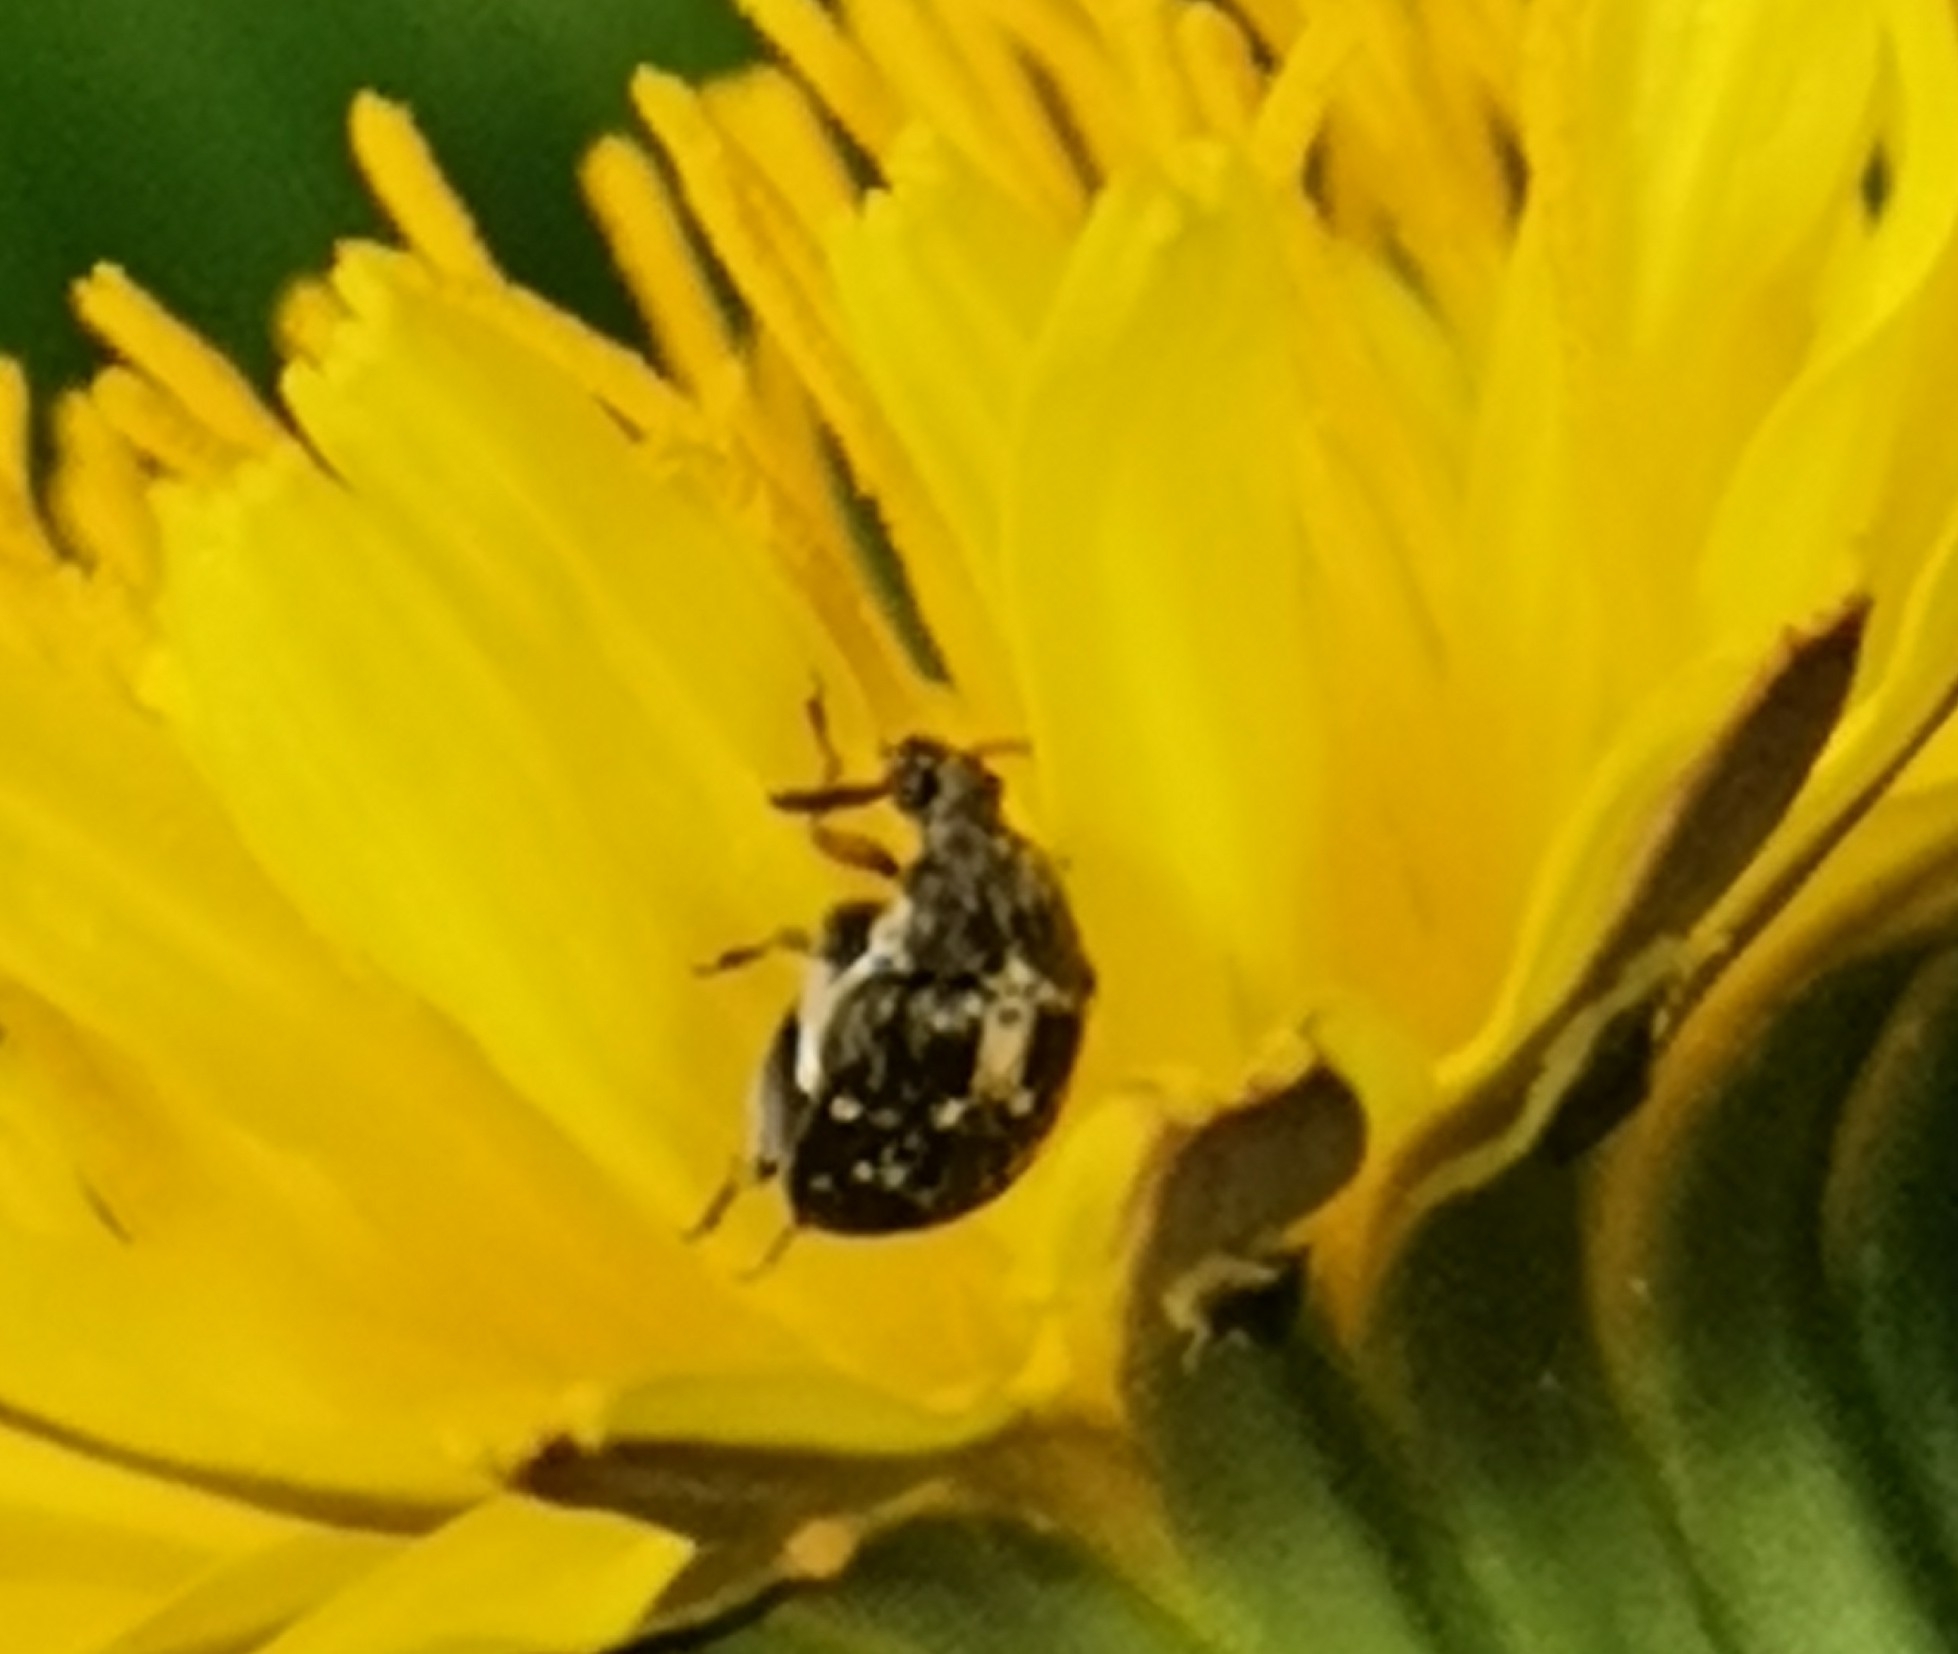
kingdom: Animalia
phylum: Arthropoda
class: Insecta
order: Coleoptera
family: Chrysomelidae
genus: Bruchus
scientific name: Bruchus atomarius
